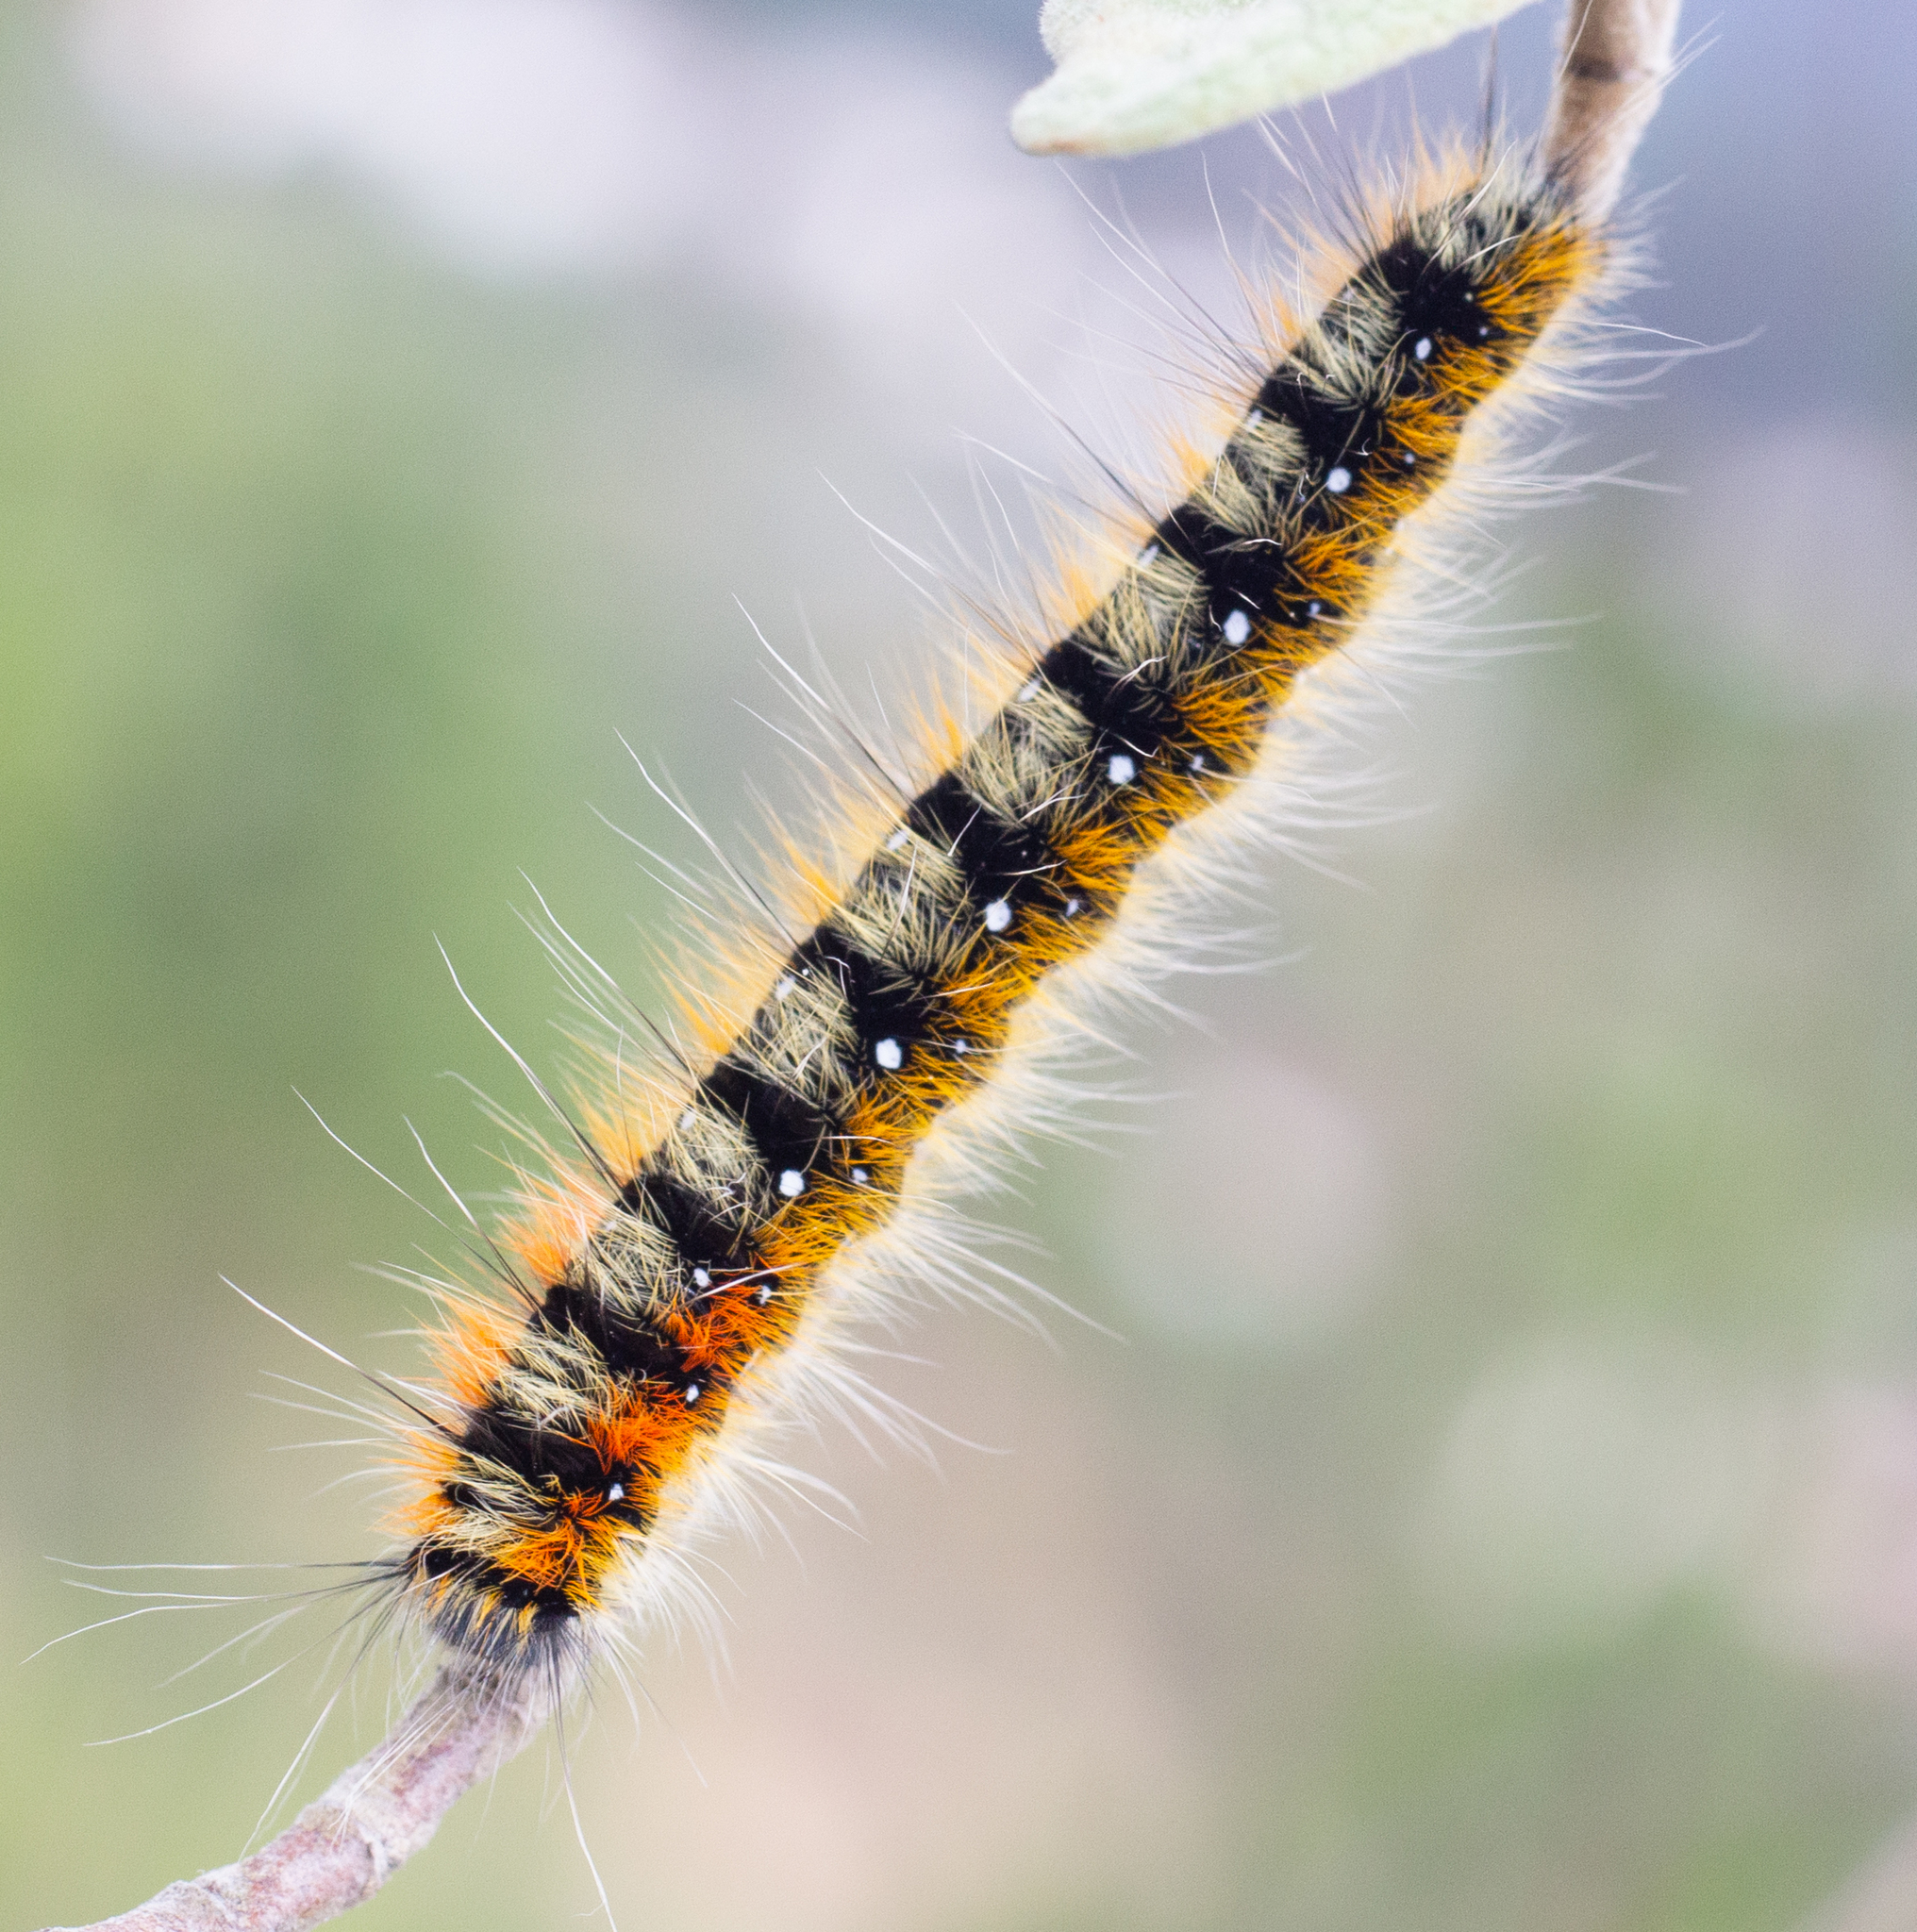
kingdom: Animalia
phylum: Arthropoda
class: Insecta
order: Lepidoptera
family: Lasiocampidae
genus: Psilogaster
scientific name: Psilogaster loti
